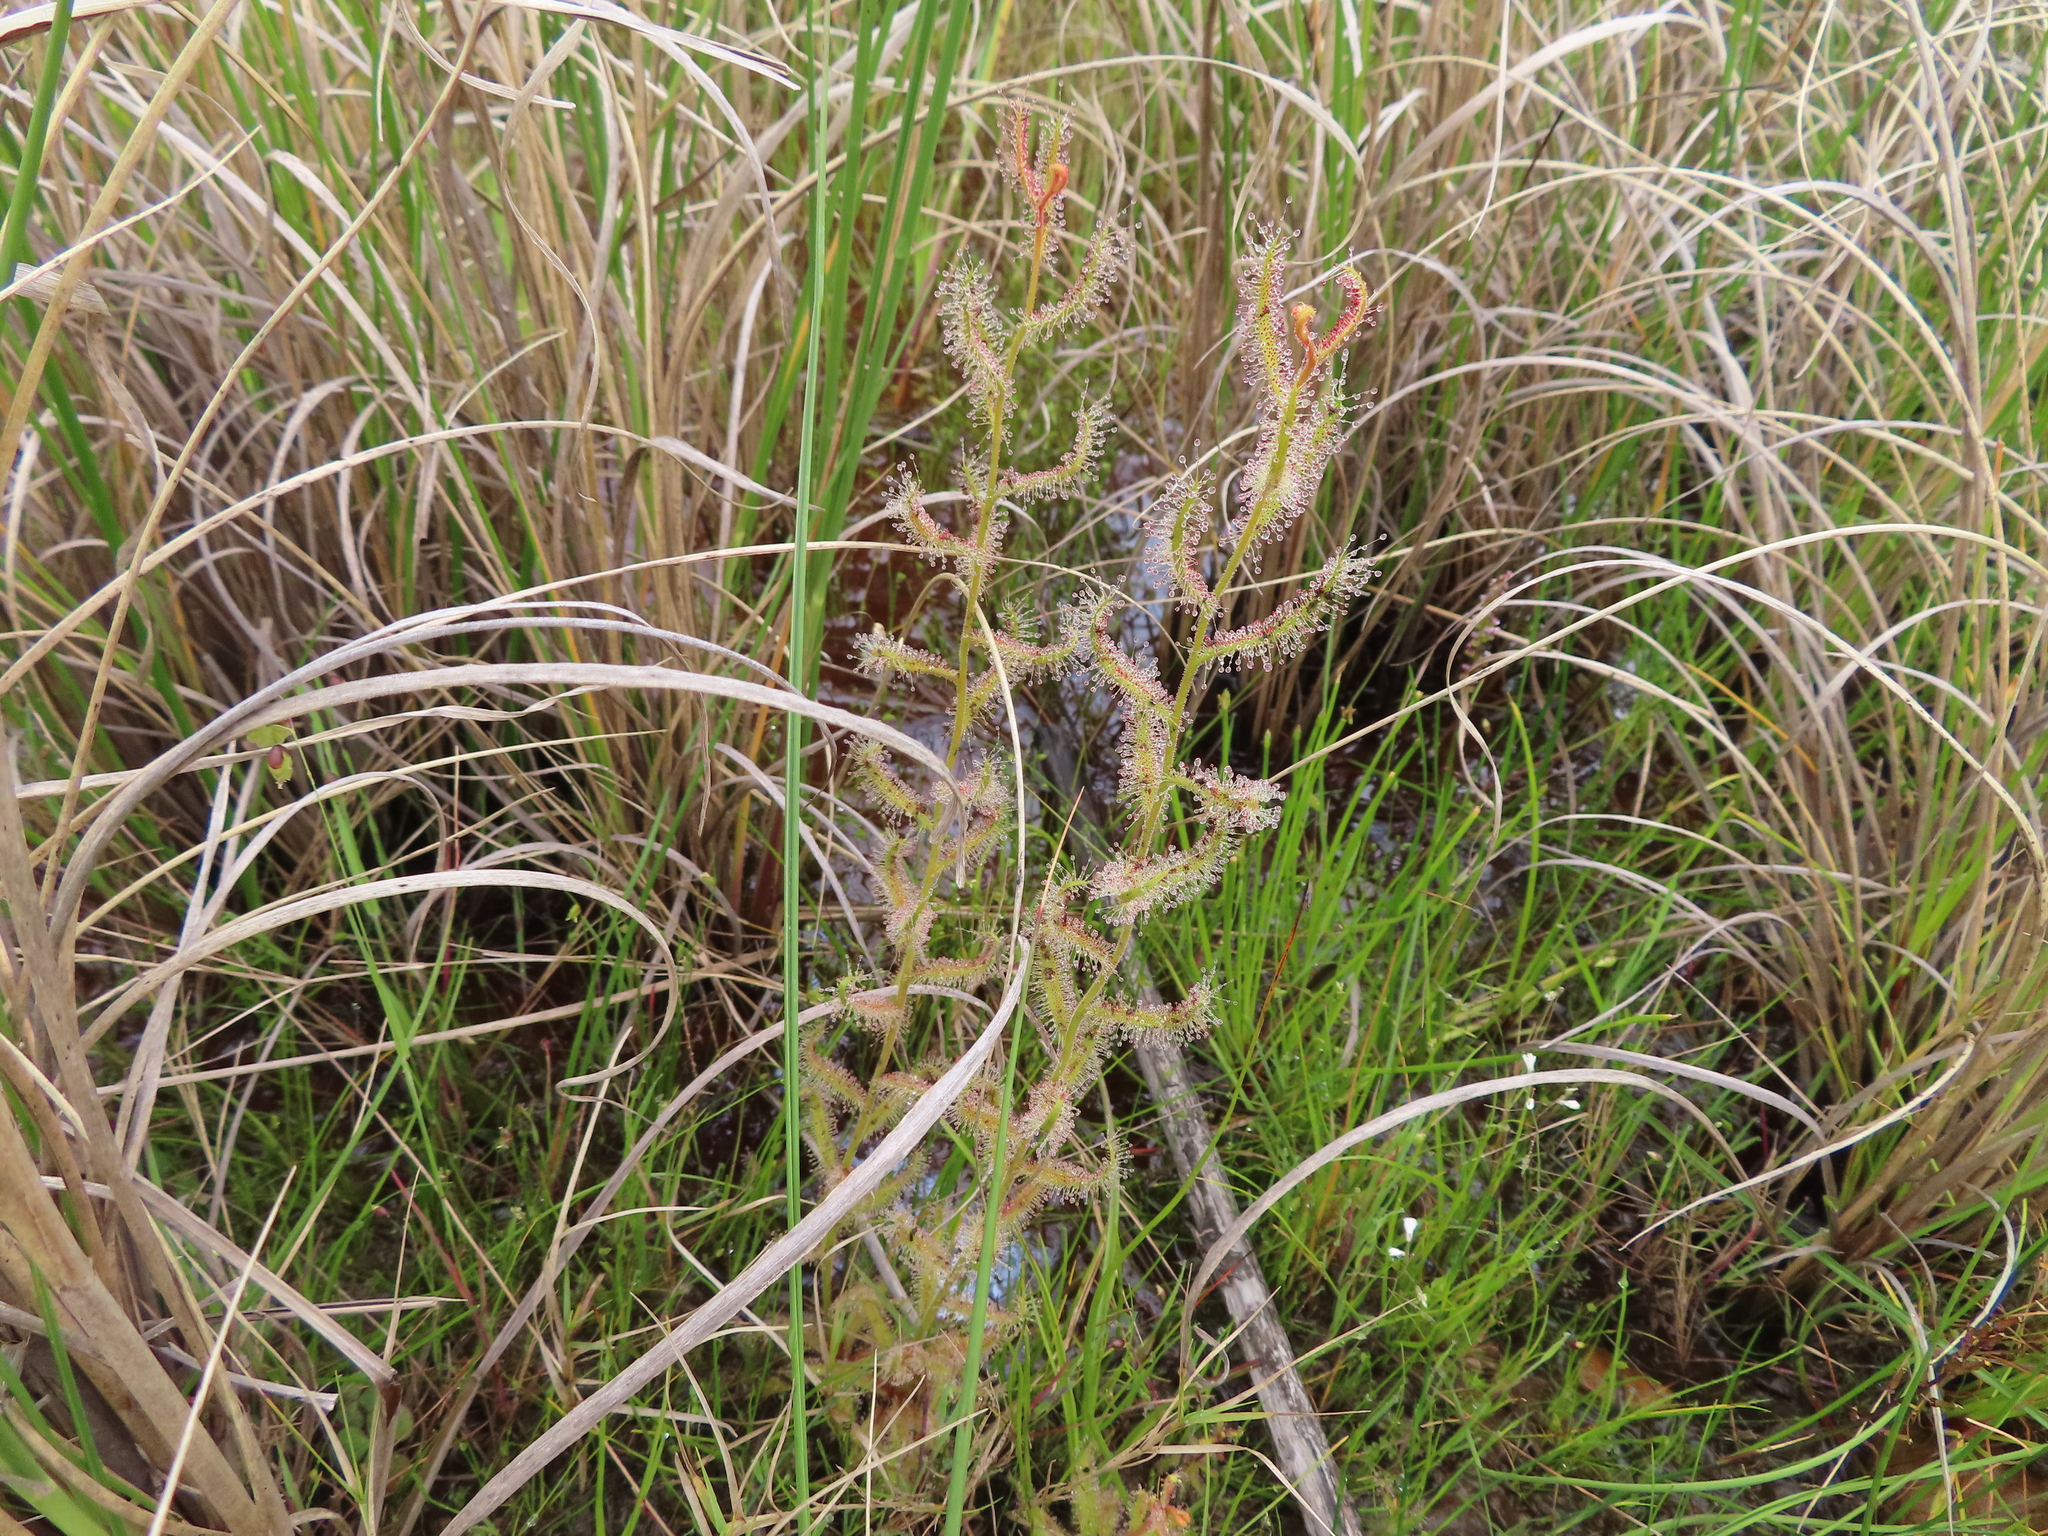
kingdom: Plantae
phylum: Tracheophyta
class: Magnoliopsida
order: Caryophyllales
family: Droseraceae
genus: Drosera
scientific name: Drosera cistiflora
